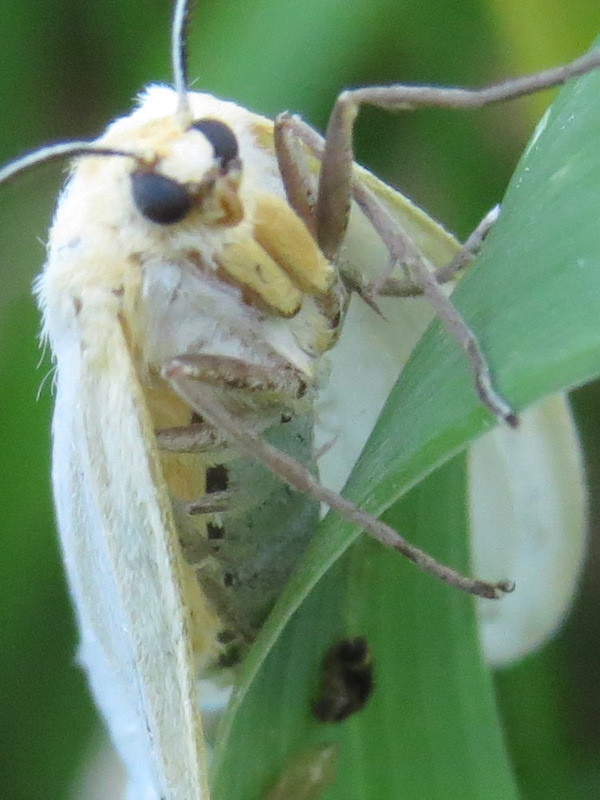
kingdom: Animalia
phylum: Arthropoda
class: Insecta
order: Lepidoptera
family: Erebidae
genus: Cycnia
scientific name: Cycnia tenera
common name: Delicate cycnia moth
